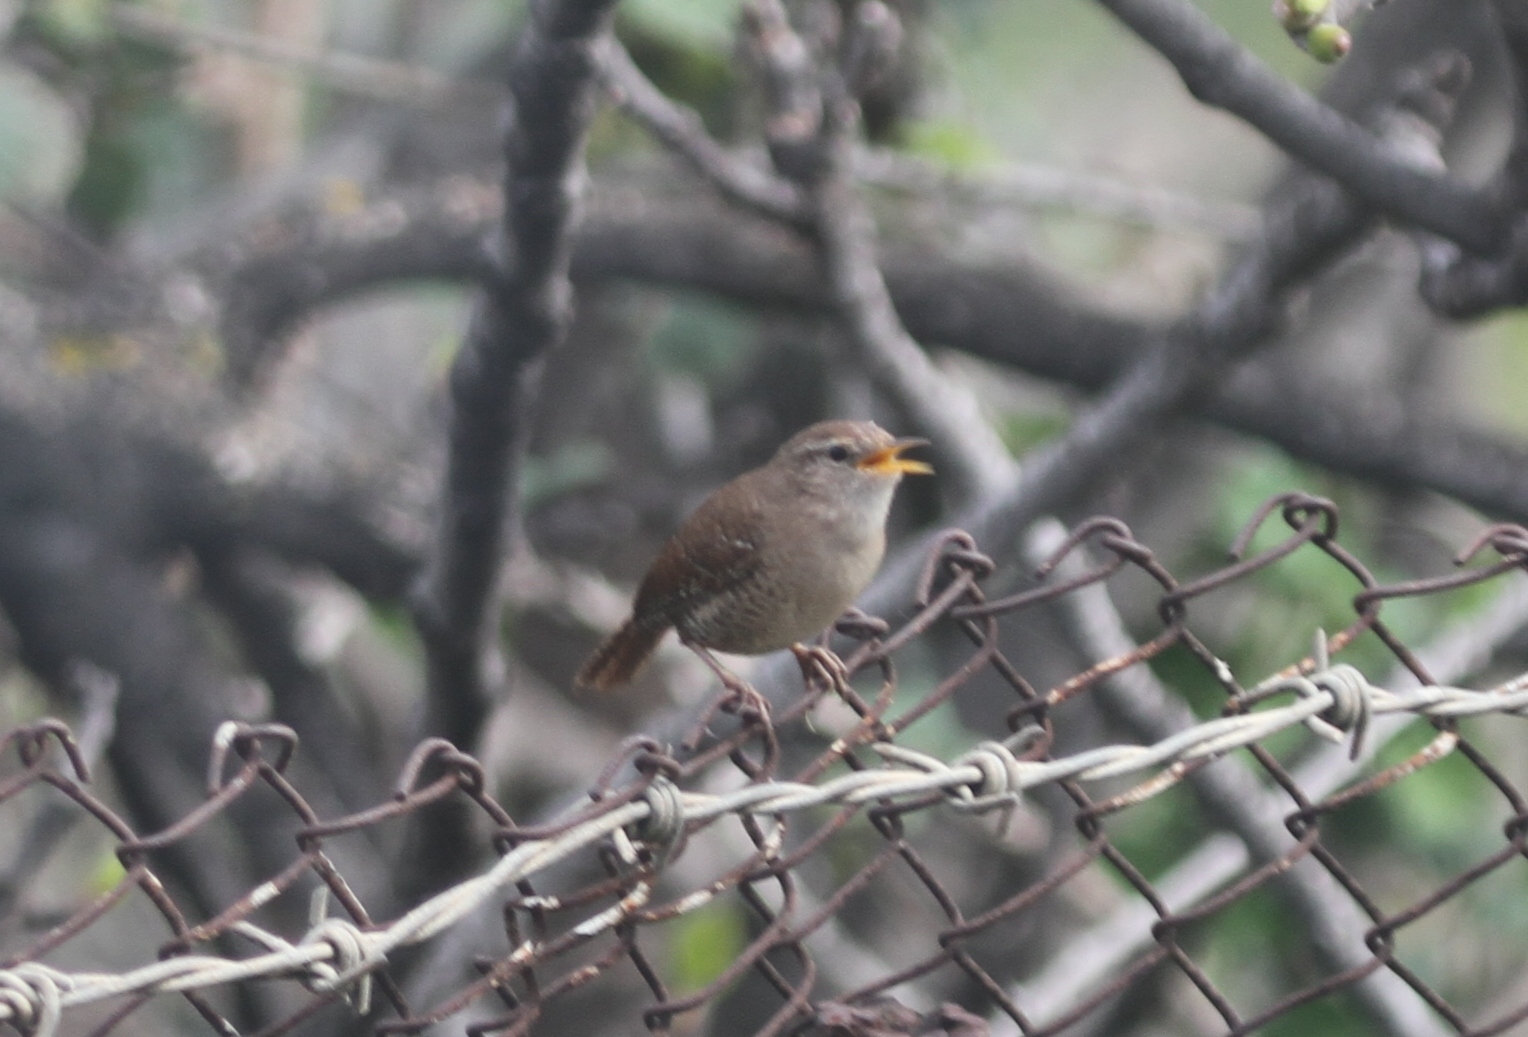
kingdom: Animalia
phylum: Chordata
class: Aves
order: Passeriformes
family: Troglodytidae
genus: Troglodytes
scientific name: Troglodytes troglodytes
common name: Eurasian wren
